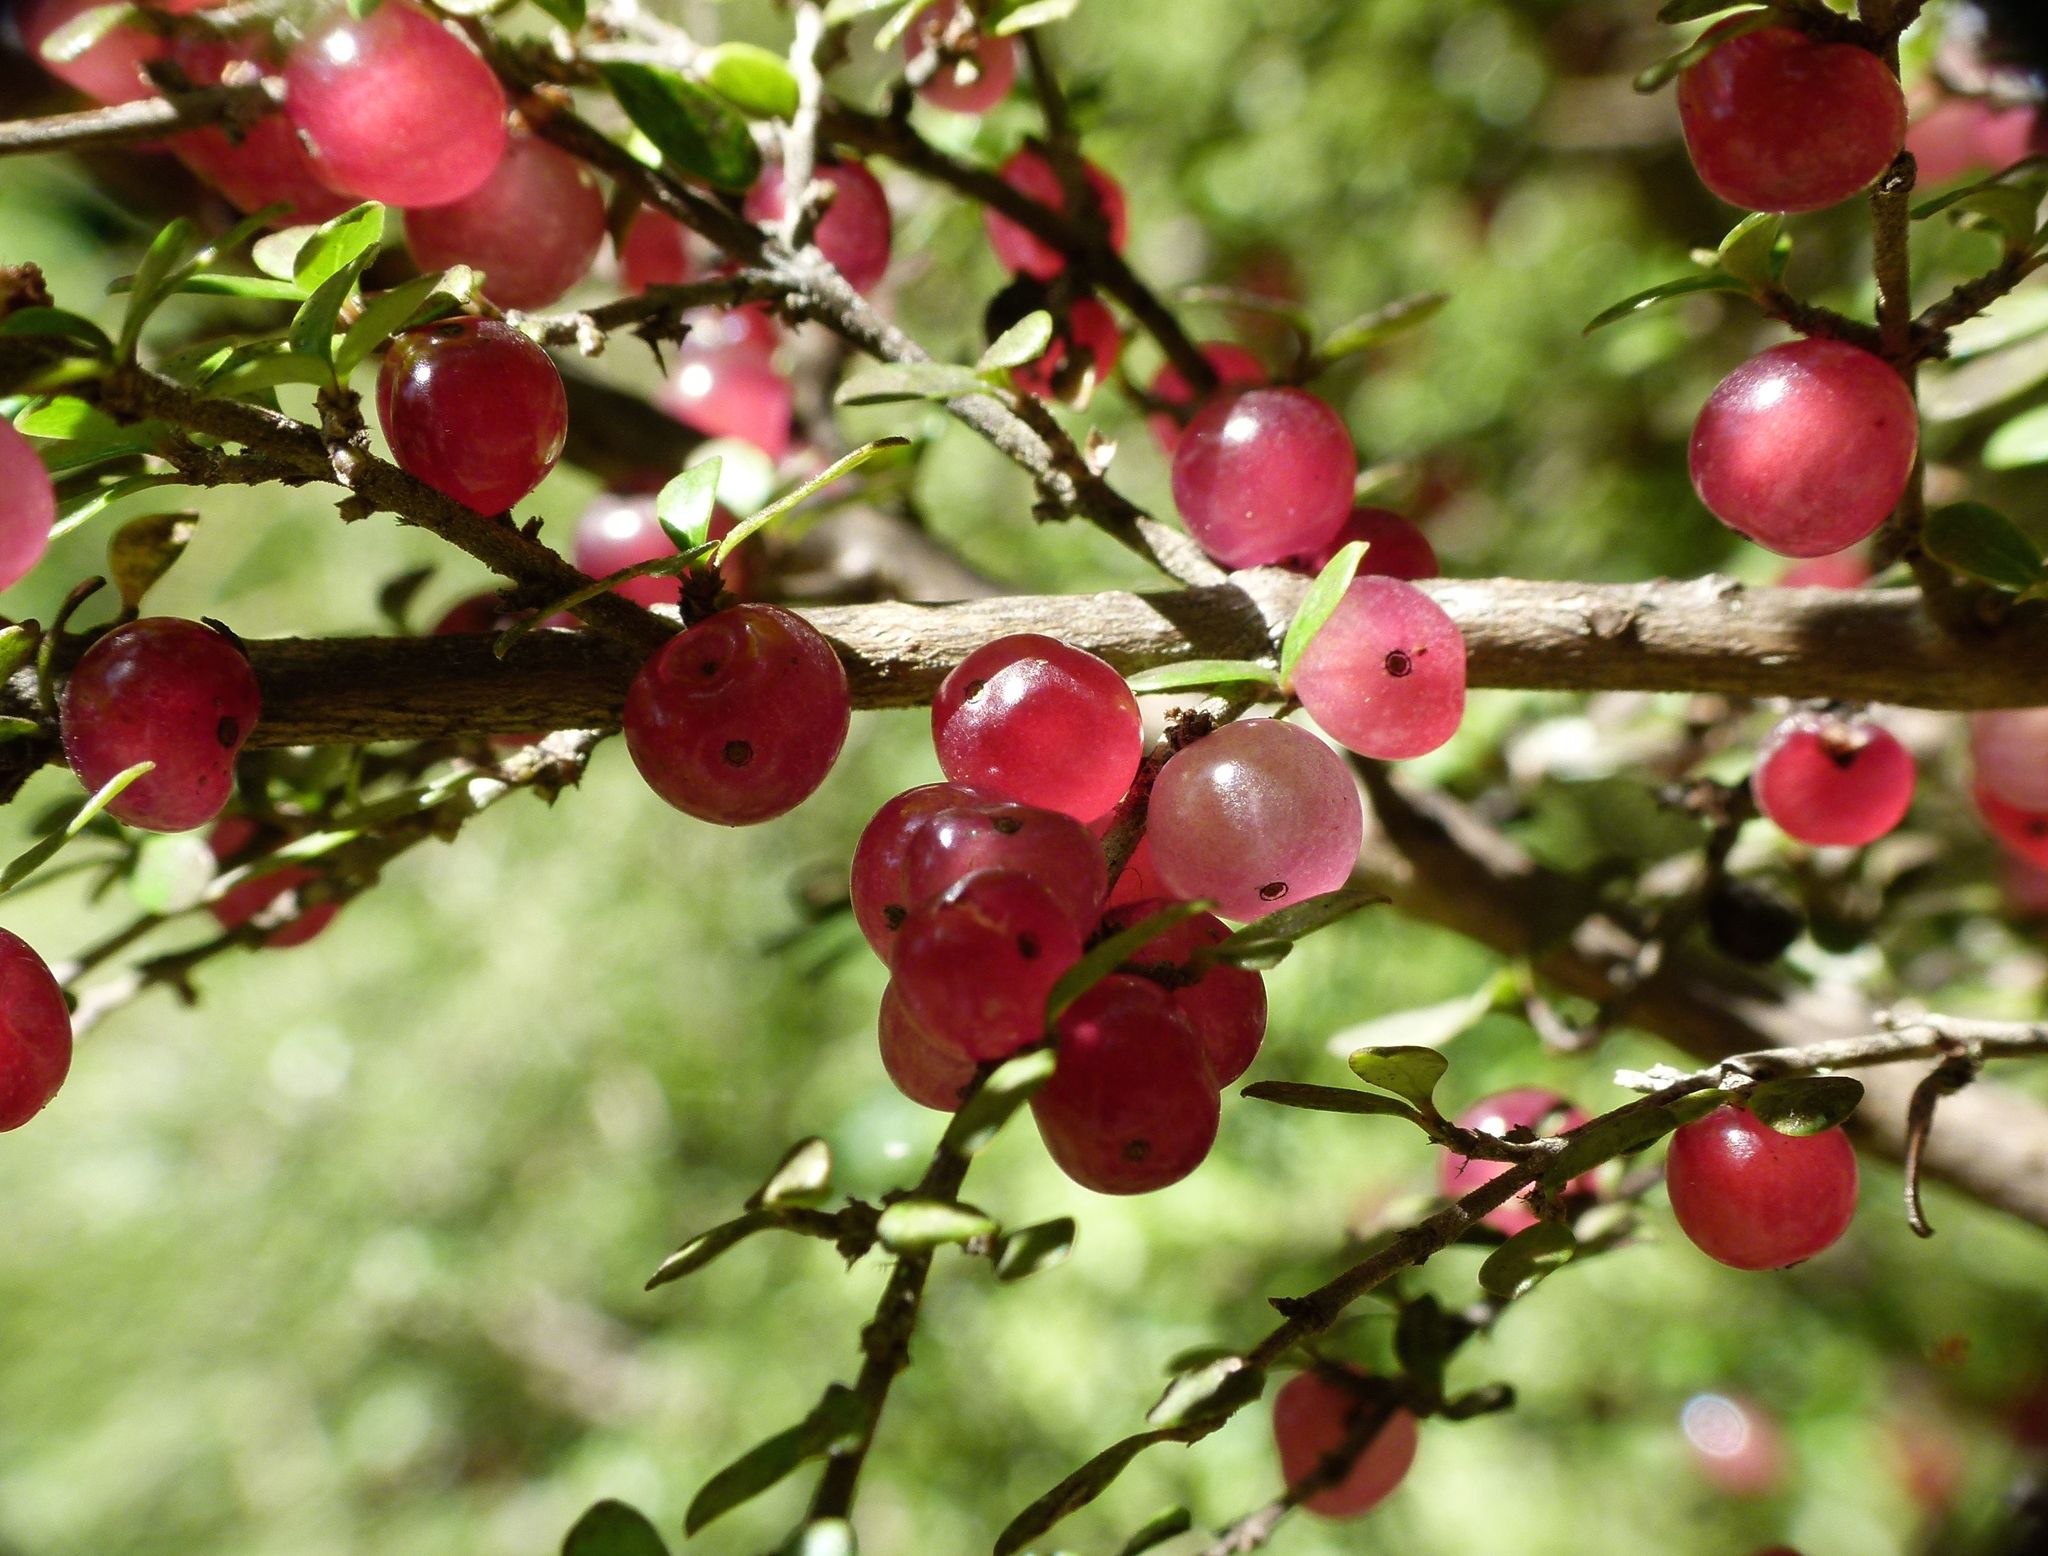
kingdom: Plantae
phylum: Tracheophyta
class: Magnoliopsida
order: Gentianales
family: Rubiaceae
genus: Coprosma
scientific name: Coprosma dumosa
